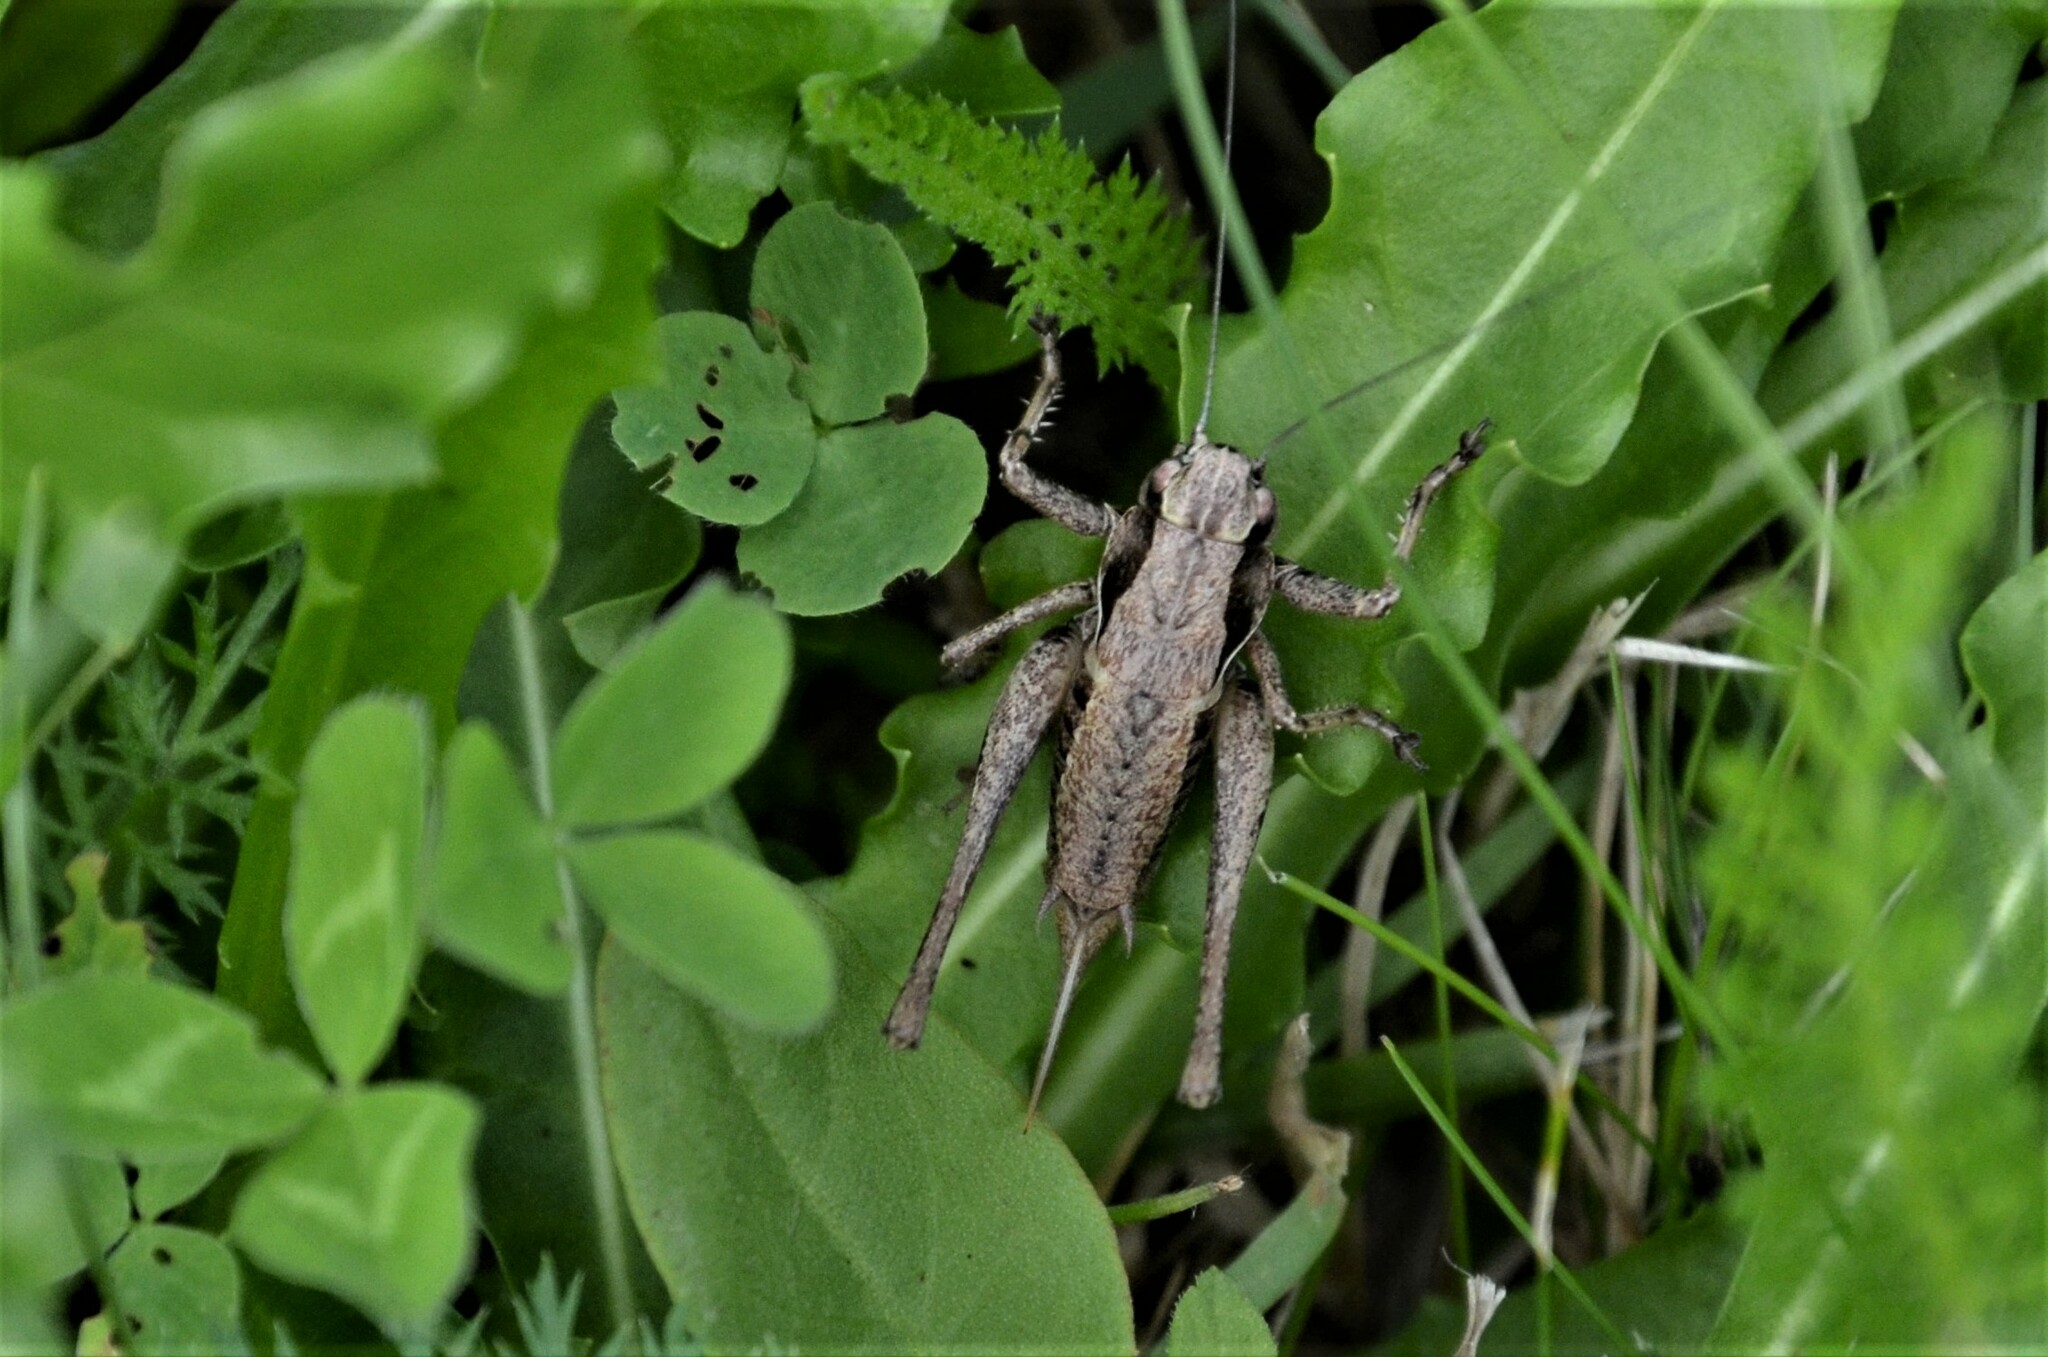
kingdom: Animalia
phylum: Arthropoda
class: Insecta
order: Orthoptera
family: Tettigoniidae
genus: Pholidoptera
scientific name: Pholidoptera griseoaptera
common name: Dark bush-cricket
